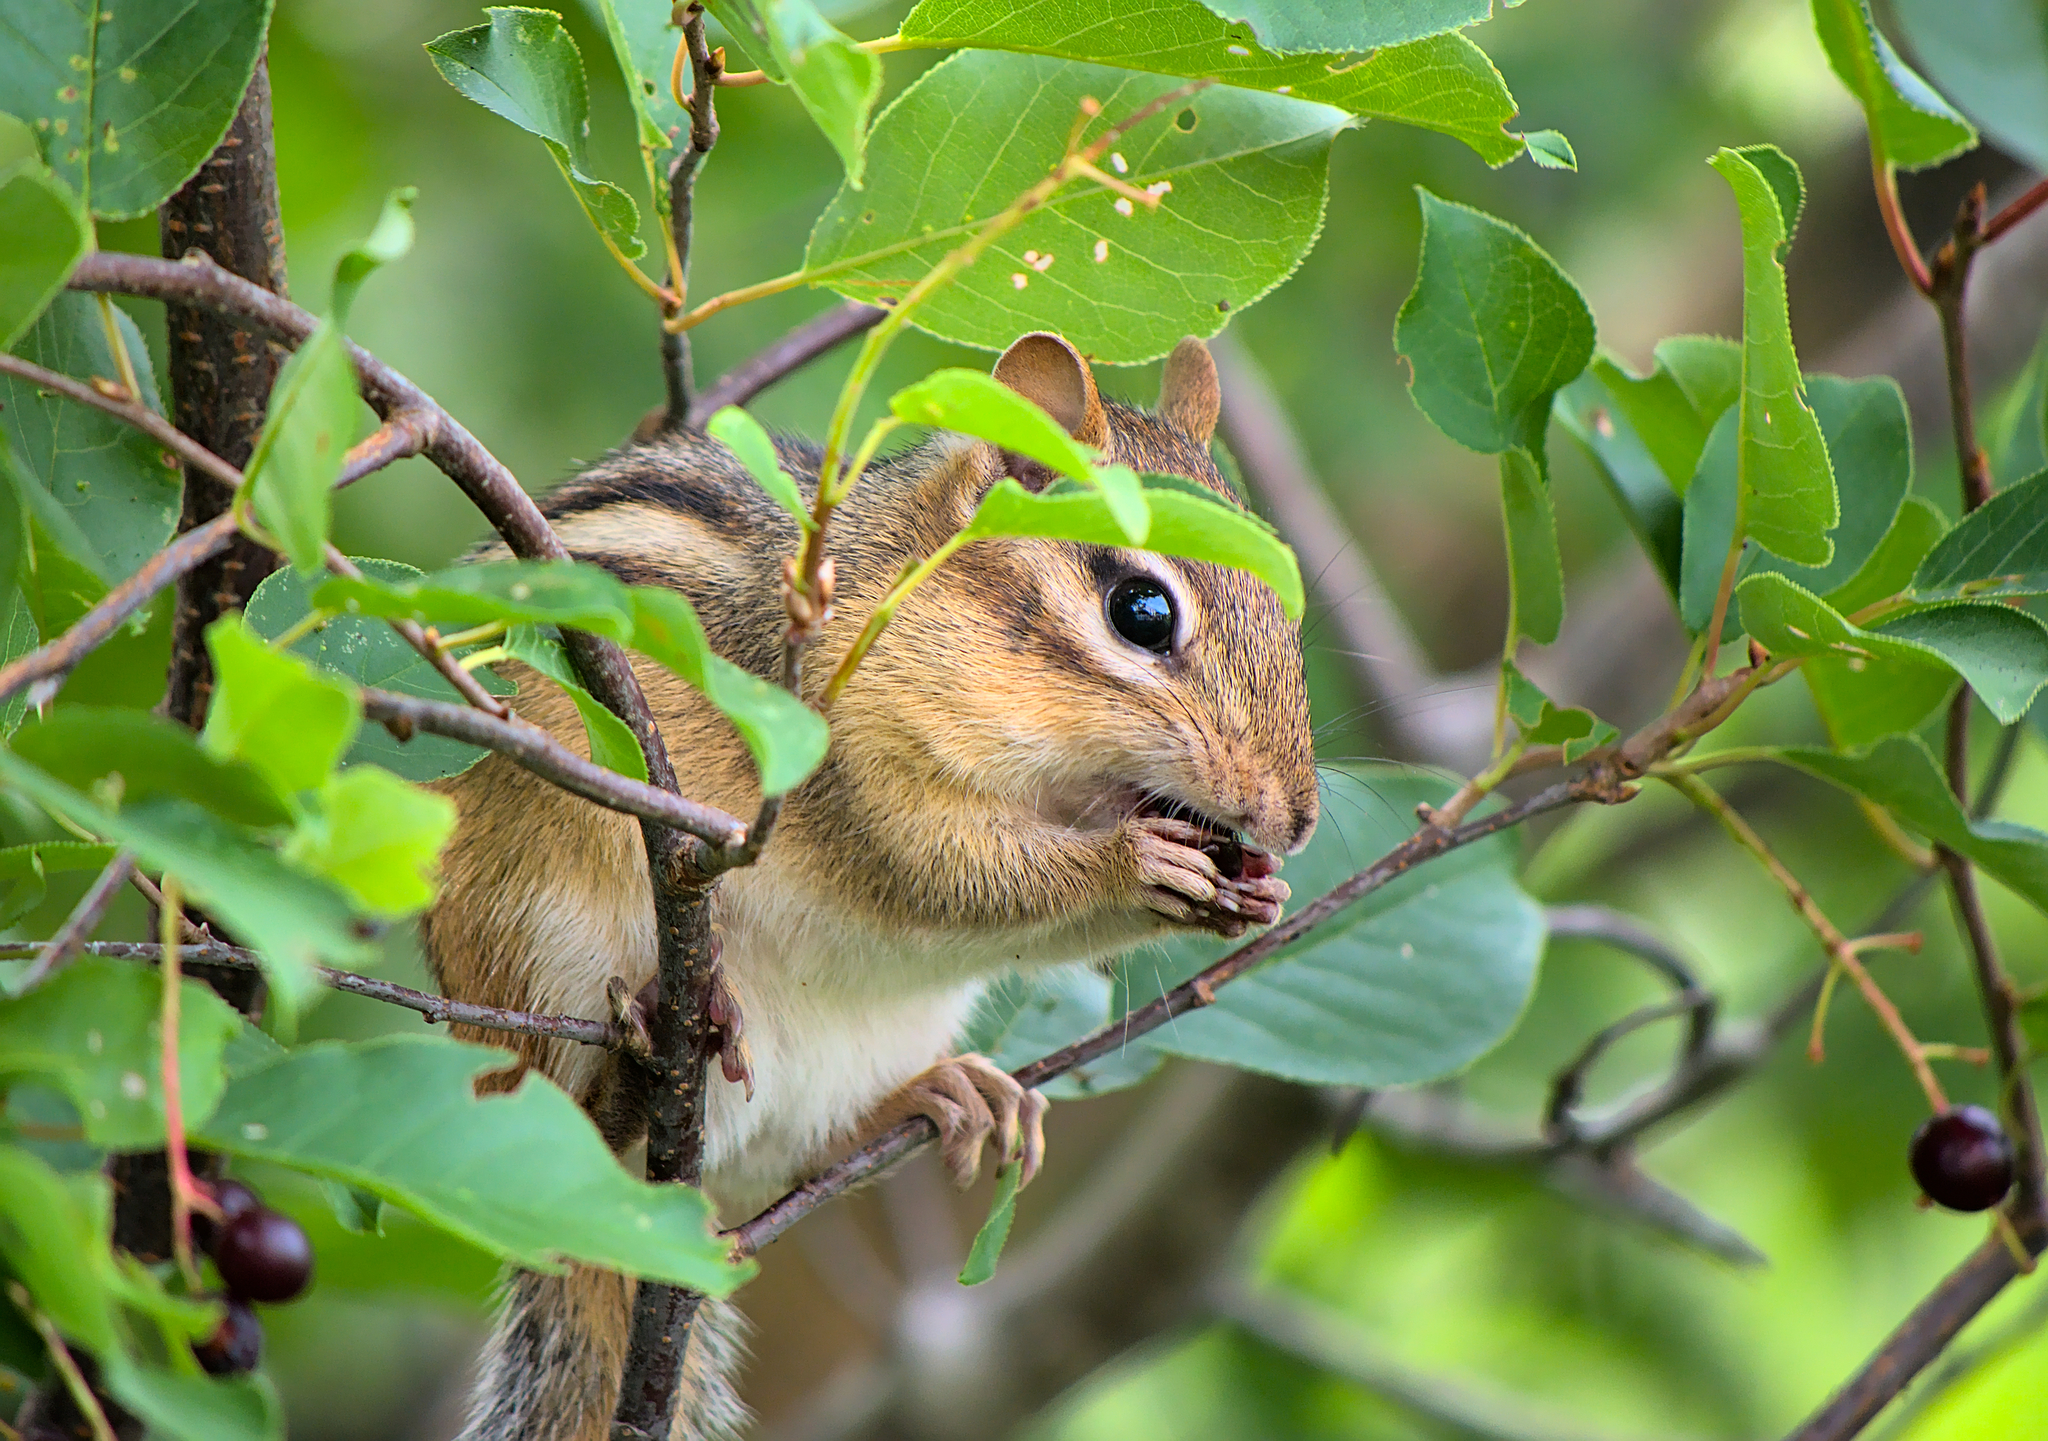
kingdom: Animalia
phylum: Chordata
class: Mammalia
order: Rodentia
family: Sciuridae
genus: Tamias
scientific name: Tamias striatus
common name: Eastern chipmunk
